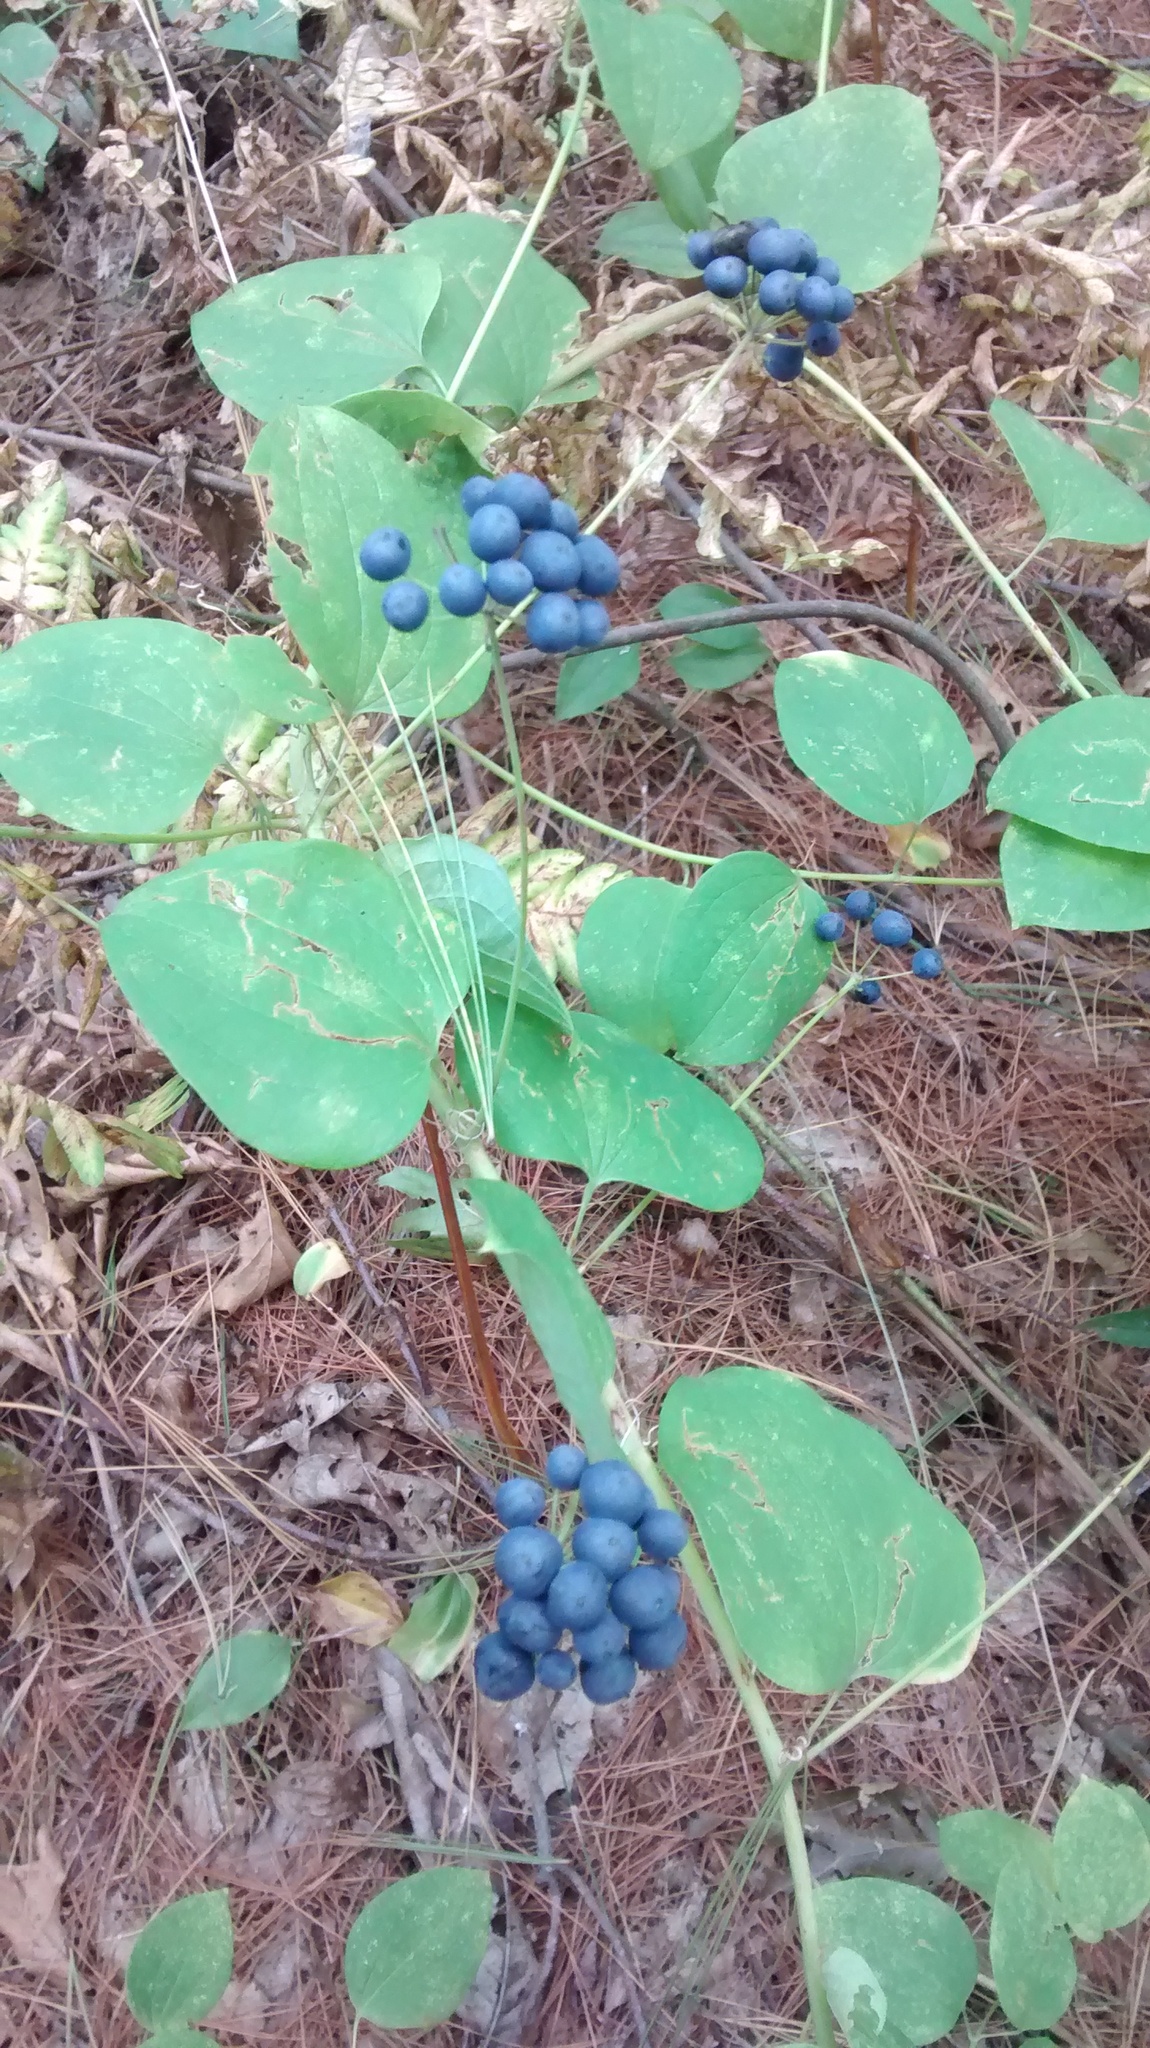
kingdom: Plantae
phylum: Tracheophyta
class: Liliopsida
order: Liliales
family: Smilacaceae
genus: Smilax
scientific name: Smilax herbacea
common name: Jacob's-ladder
